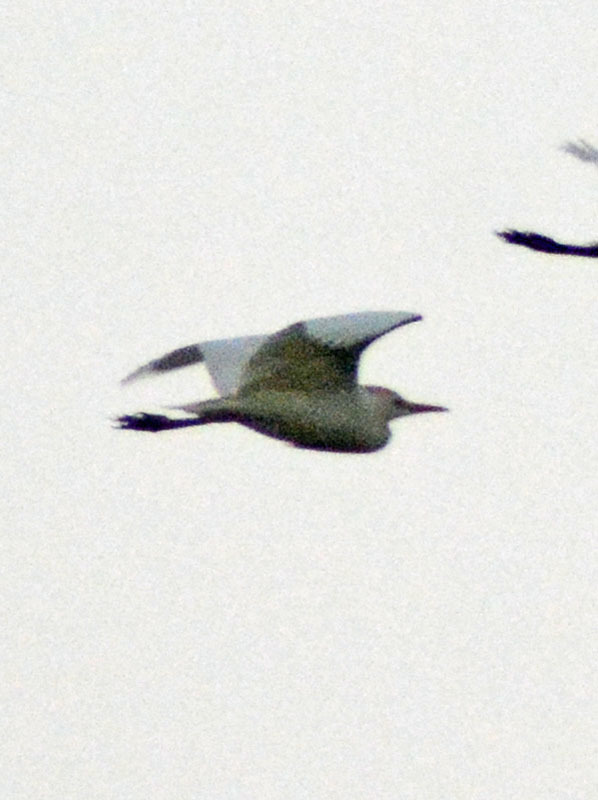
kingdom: Animalia
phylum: Chordata
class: Aves
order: Pelecaniformes
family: Ardeidae
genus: Bubulcus
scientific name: Bubulcus ibis
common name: Cattle egret
